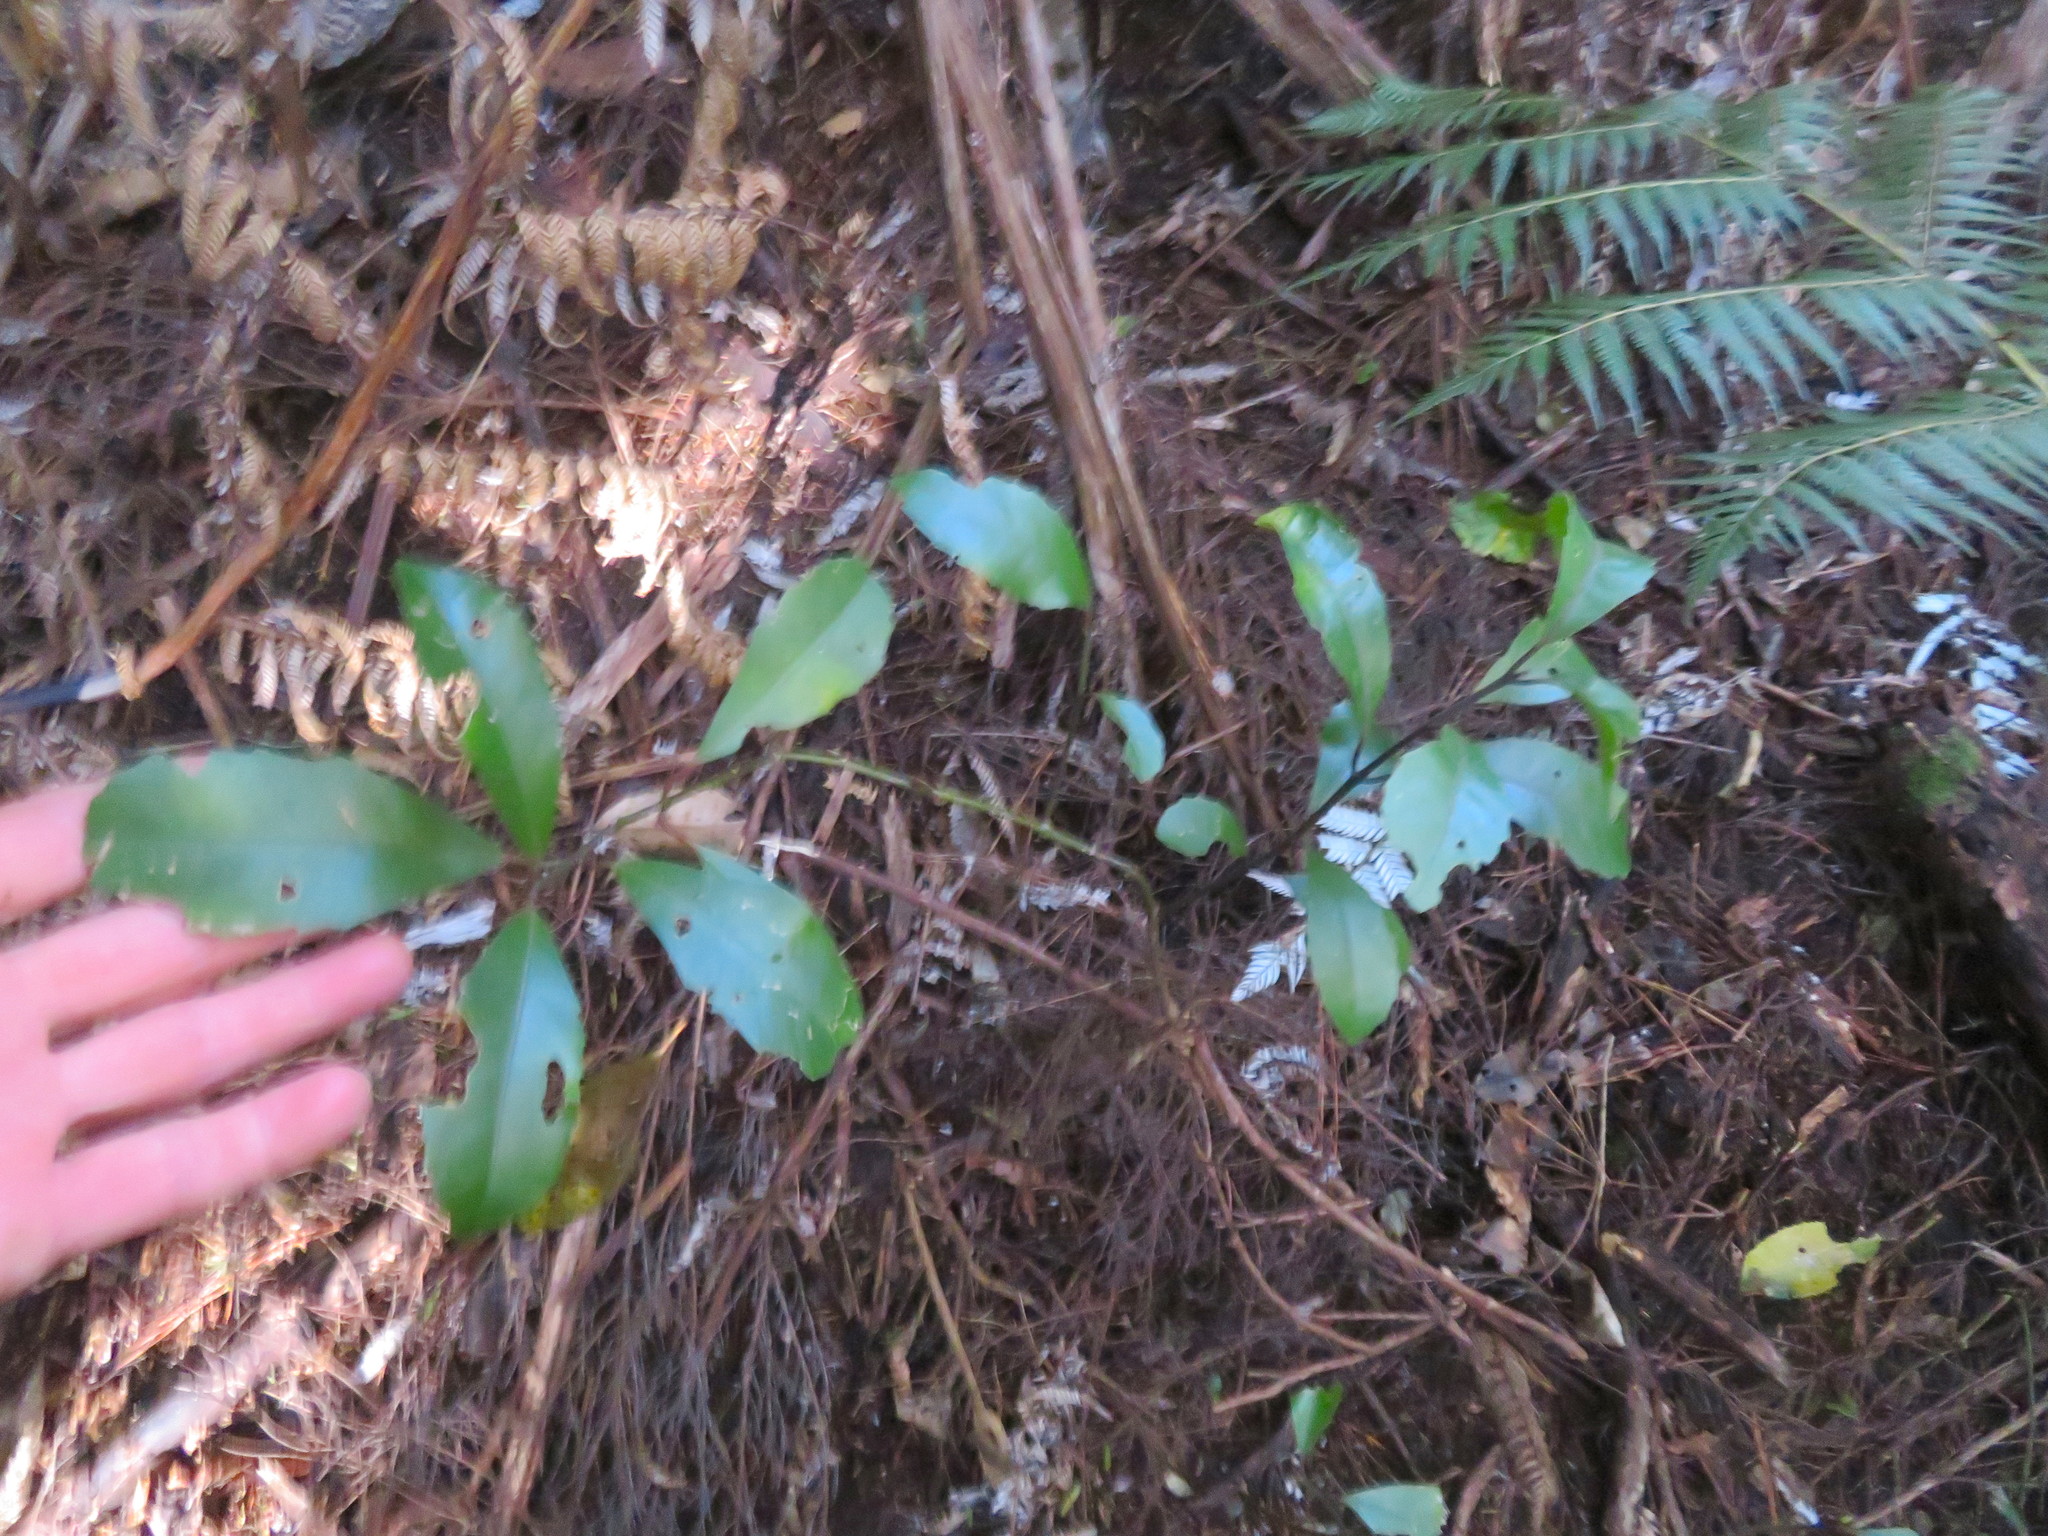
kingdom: Plantae
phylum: Tracheophyta
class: Magnoliopsida
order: Laurales
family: Monimiaceae
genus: Hedycarya
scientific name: Hedycarya arborea
